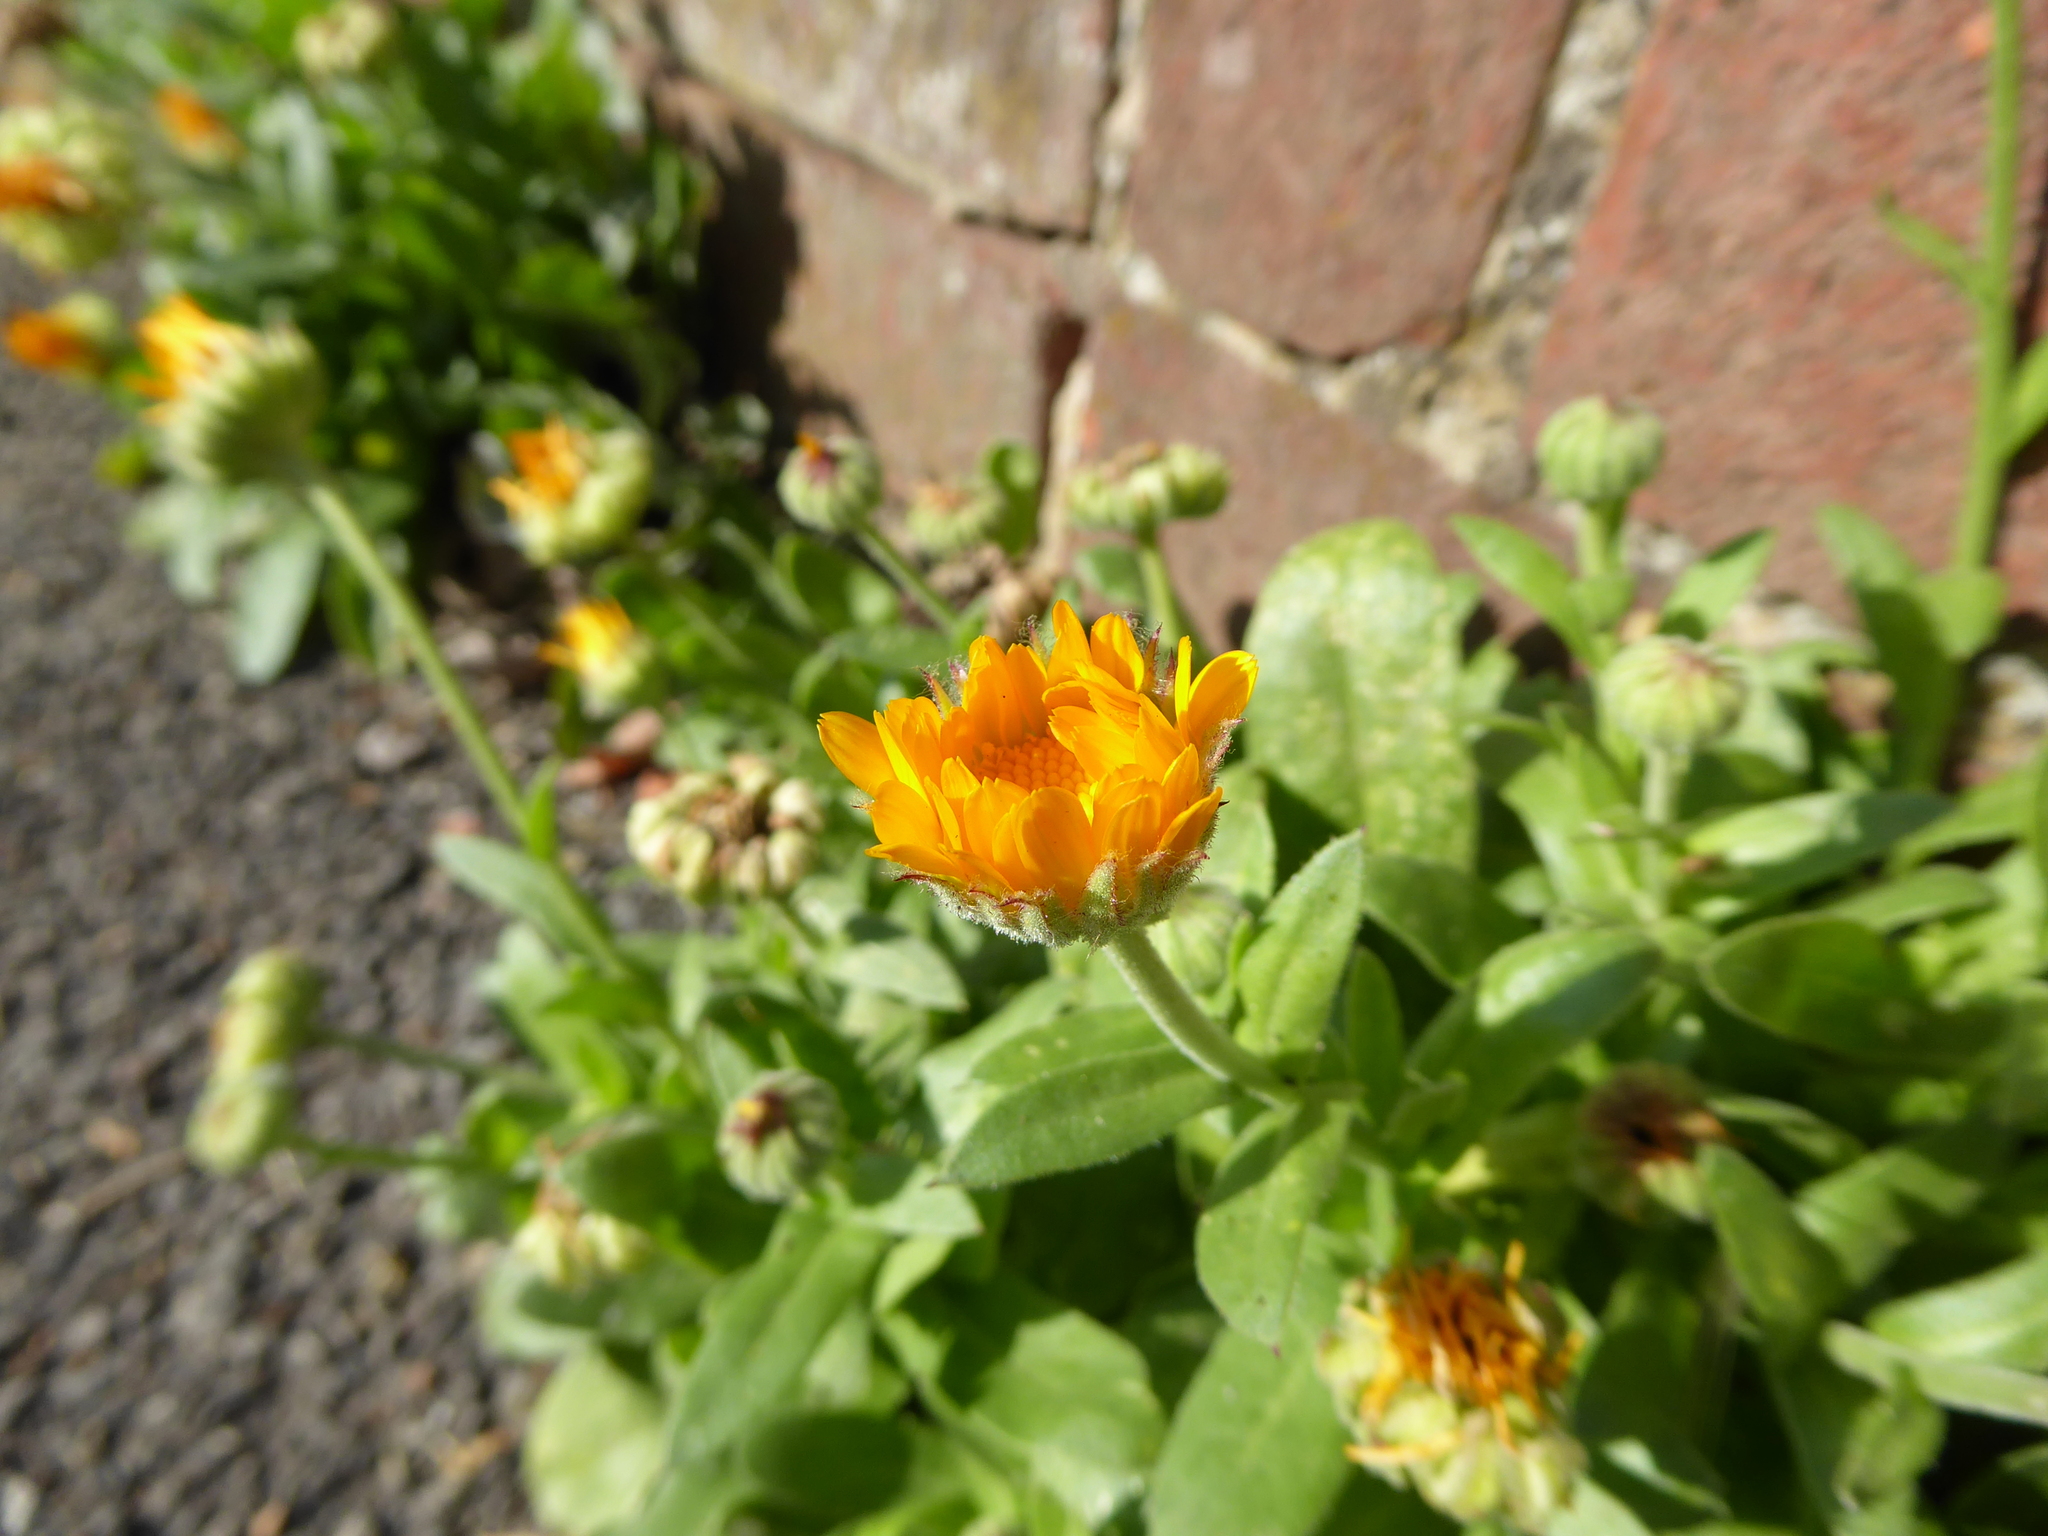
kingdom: Plantae
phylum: Tracheophyta
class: Magnoliopsida
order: Asterales
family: Asteraceae
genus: Calendula
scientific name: Calendula officinalis
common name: Pot marigold
